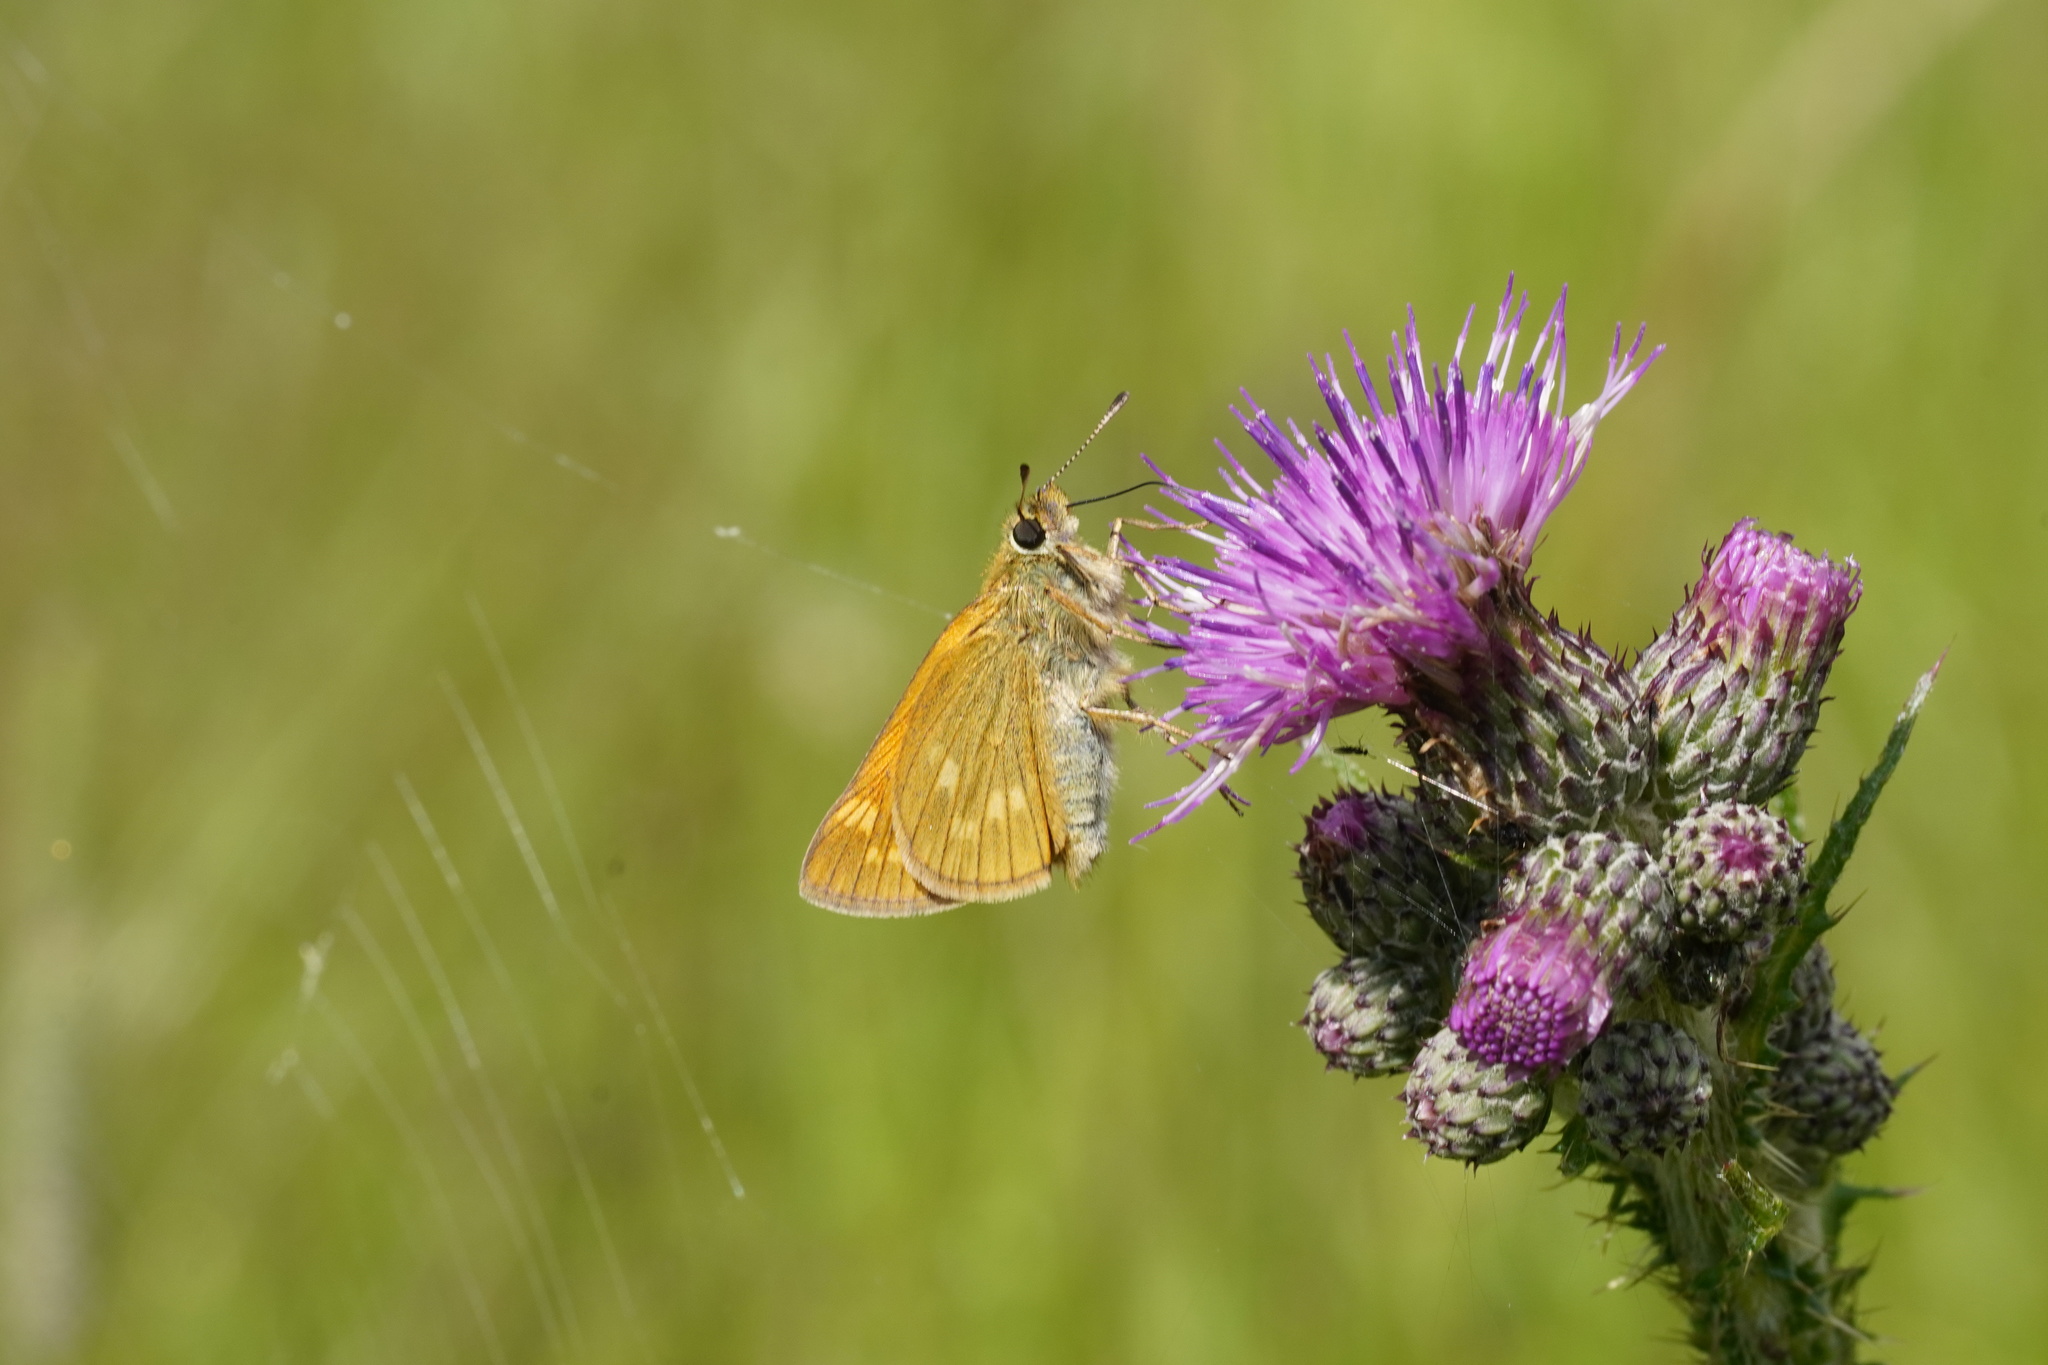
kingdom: Animalia
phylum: Arthropoda
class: Insecta
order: Lepidoptera
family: Hesperiidae
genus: Ochlodes
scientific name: Ochlodes venata
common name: Large skipper
